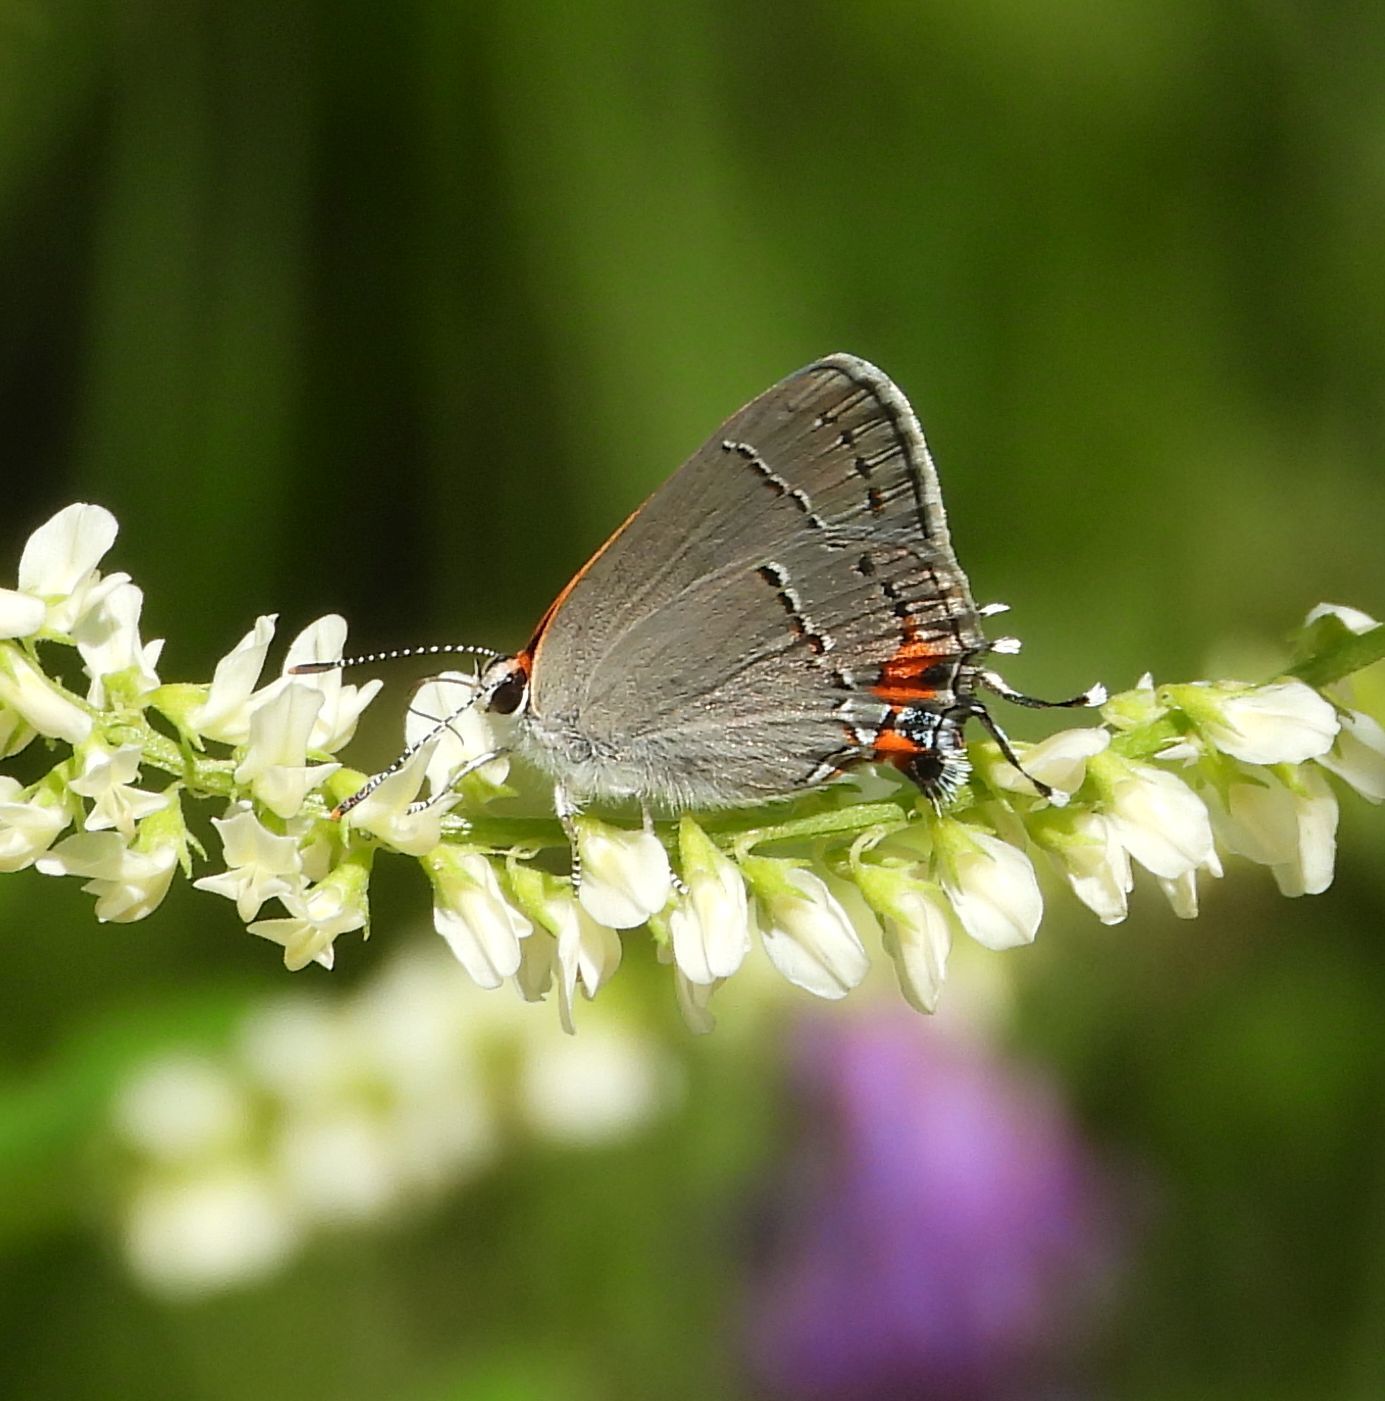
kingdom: Animalia
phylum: Arthropoda
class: Insecta
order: Lepidoptera
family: Lycaenidae
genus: Strymon
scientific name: Strymon melinus
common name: Gray hairstreak
